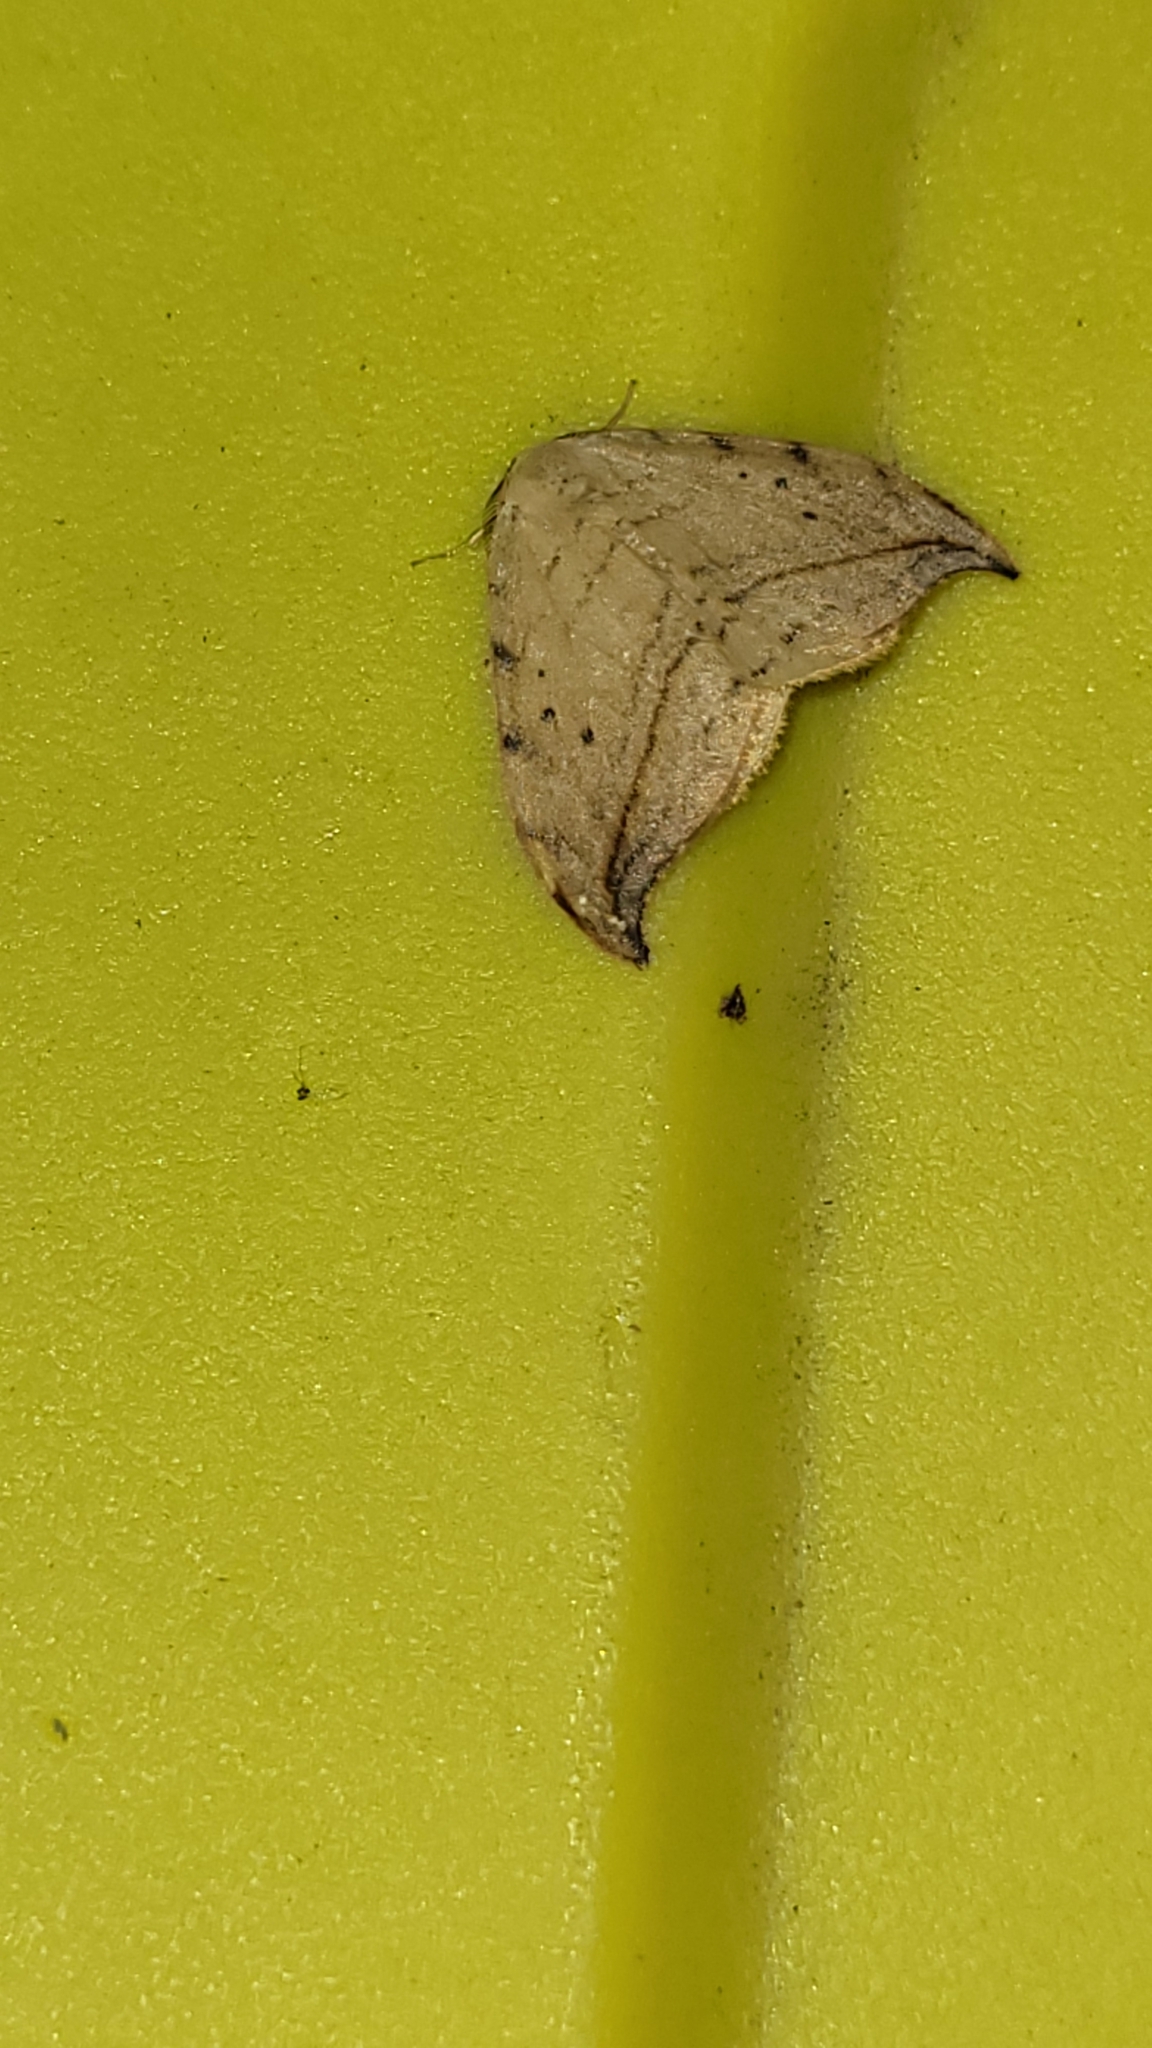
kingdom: Animalia
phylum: Arthropoda
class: Insecta
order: Lepidoptera
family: Drepanidae
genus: Drepana
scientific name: Drepana arcuata
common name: Arched hooktip moth
